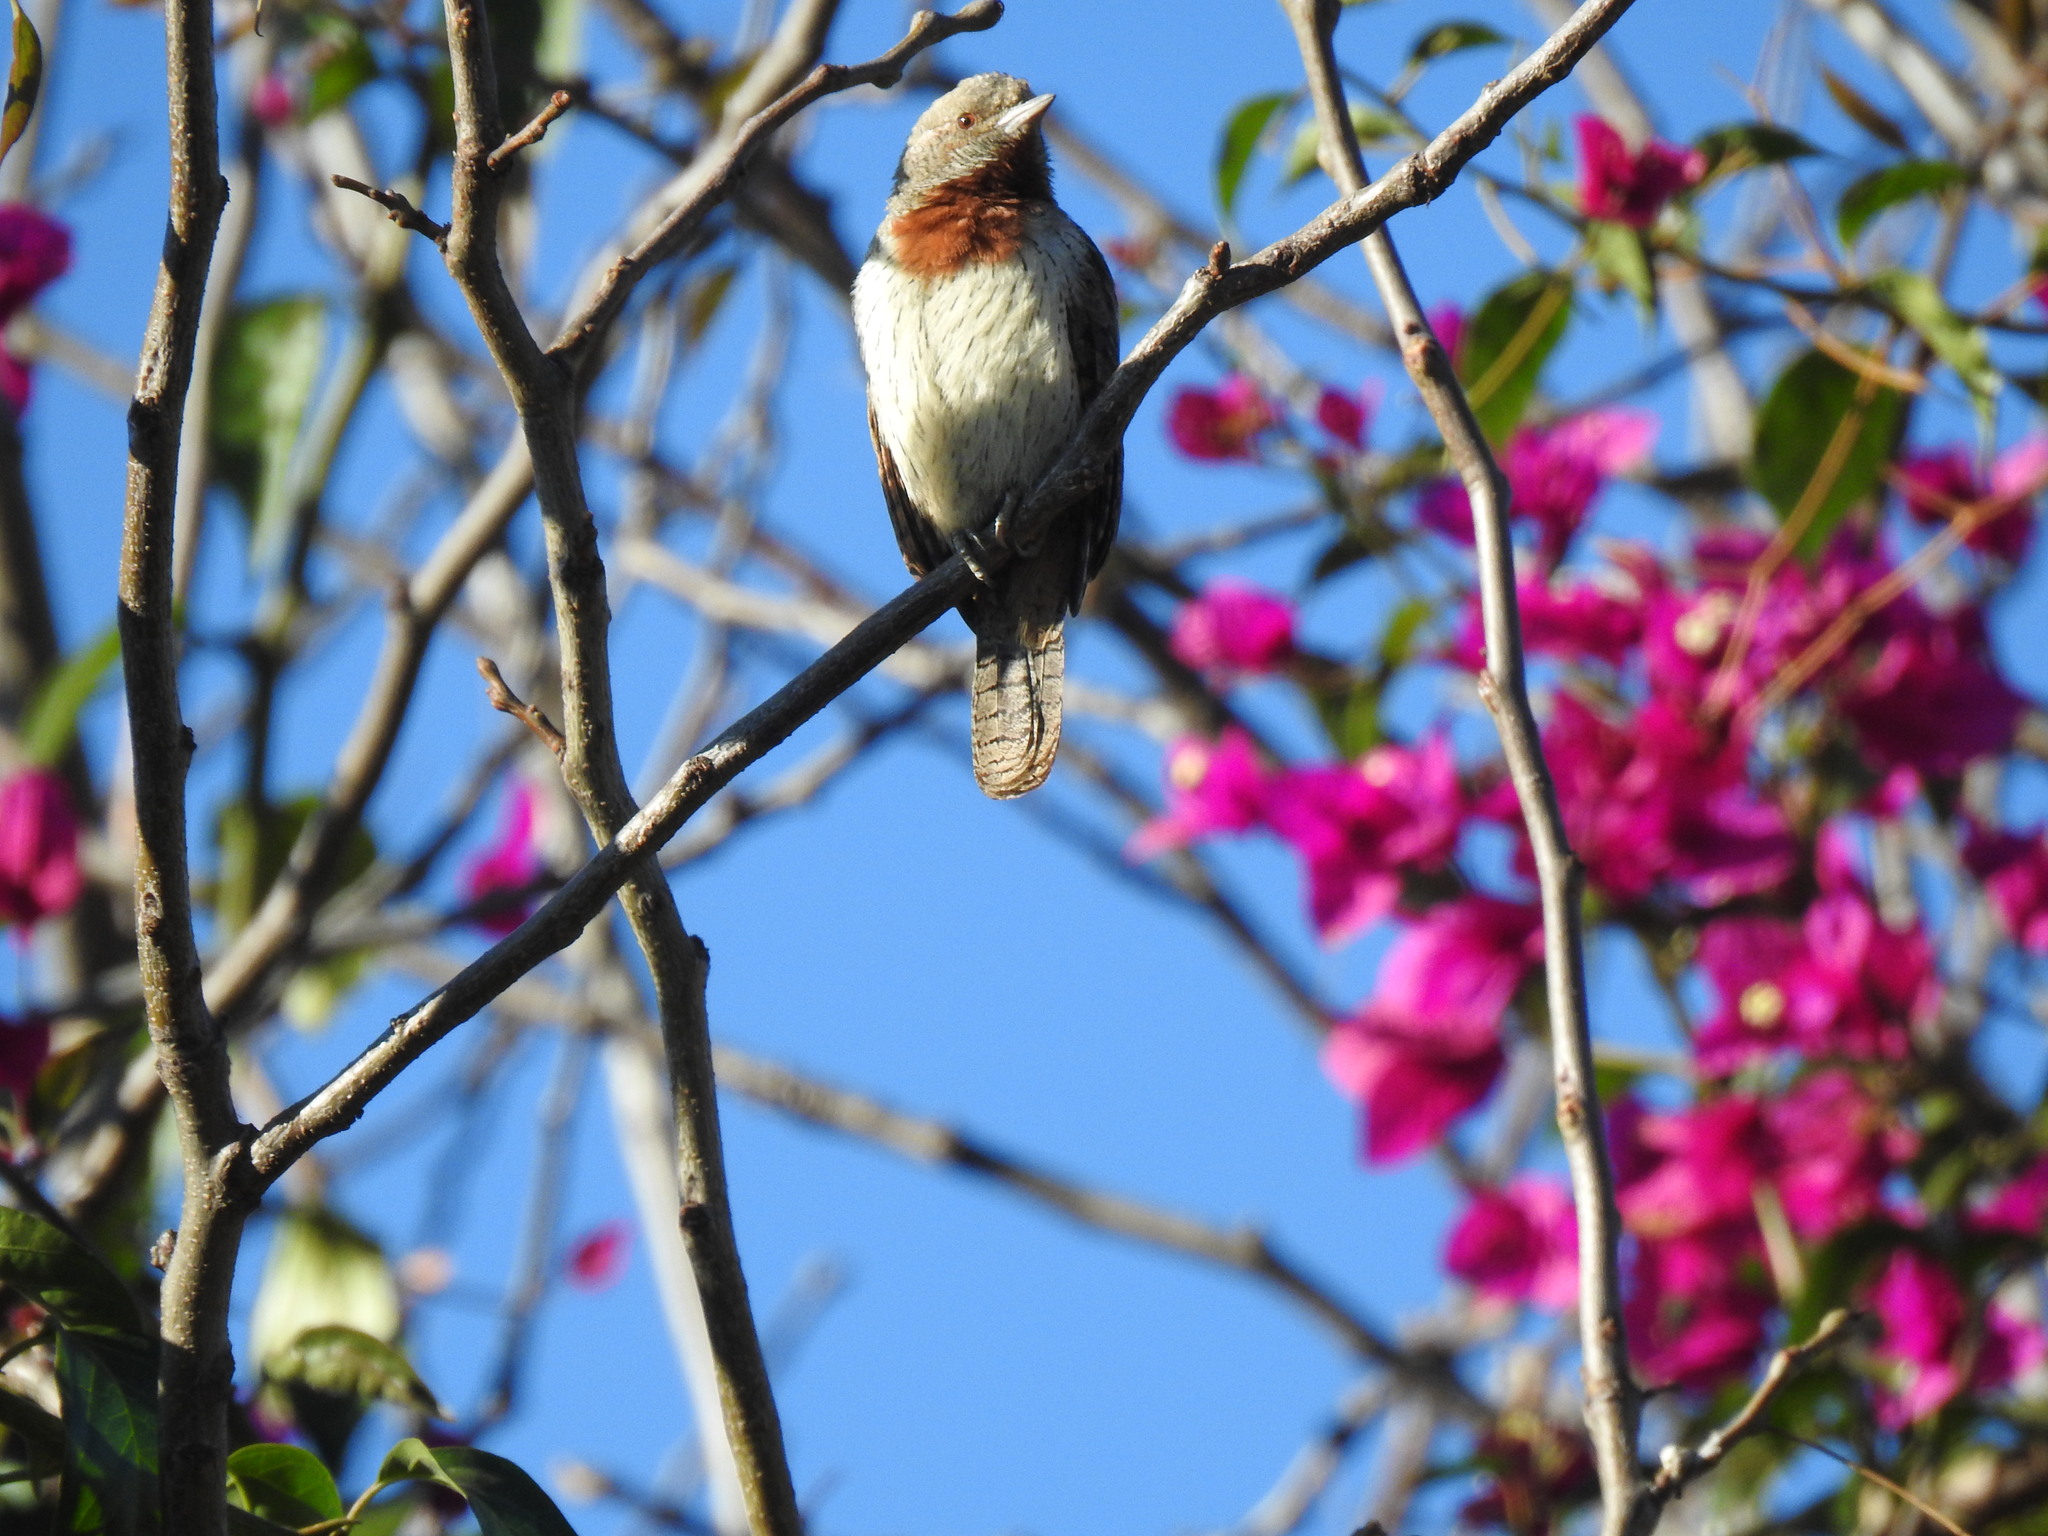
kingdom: Animalia
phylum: Chordata
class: Aves
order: Piciformes
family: Picidae
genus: Jynx
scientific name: Jynx ruficollis
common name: Red-throated wryneck
